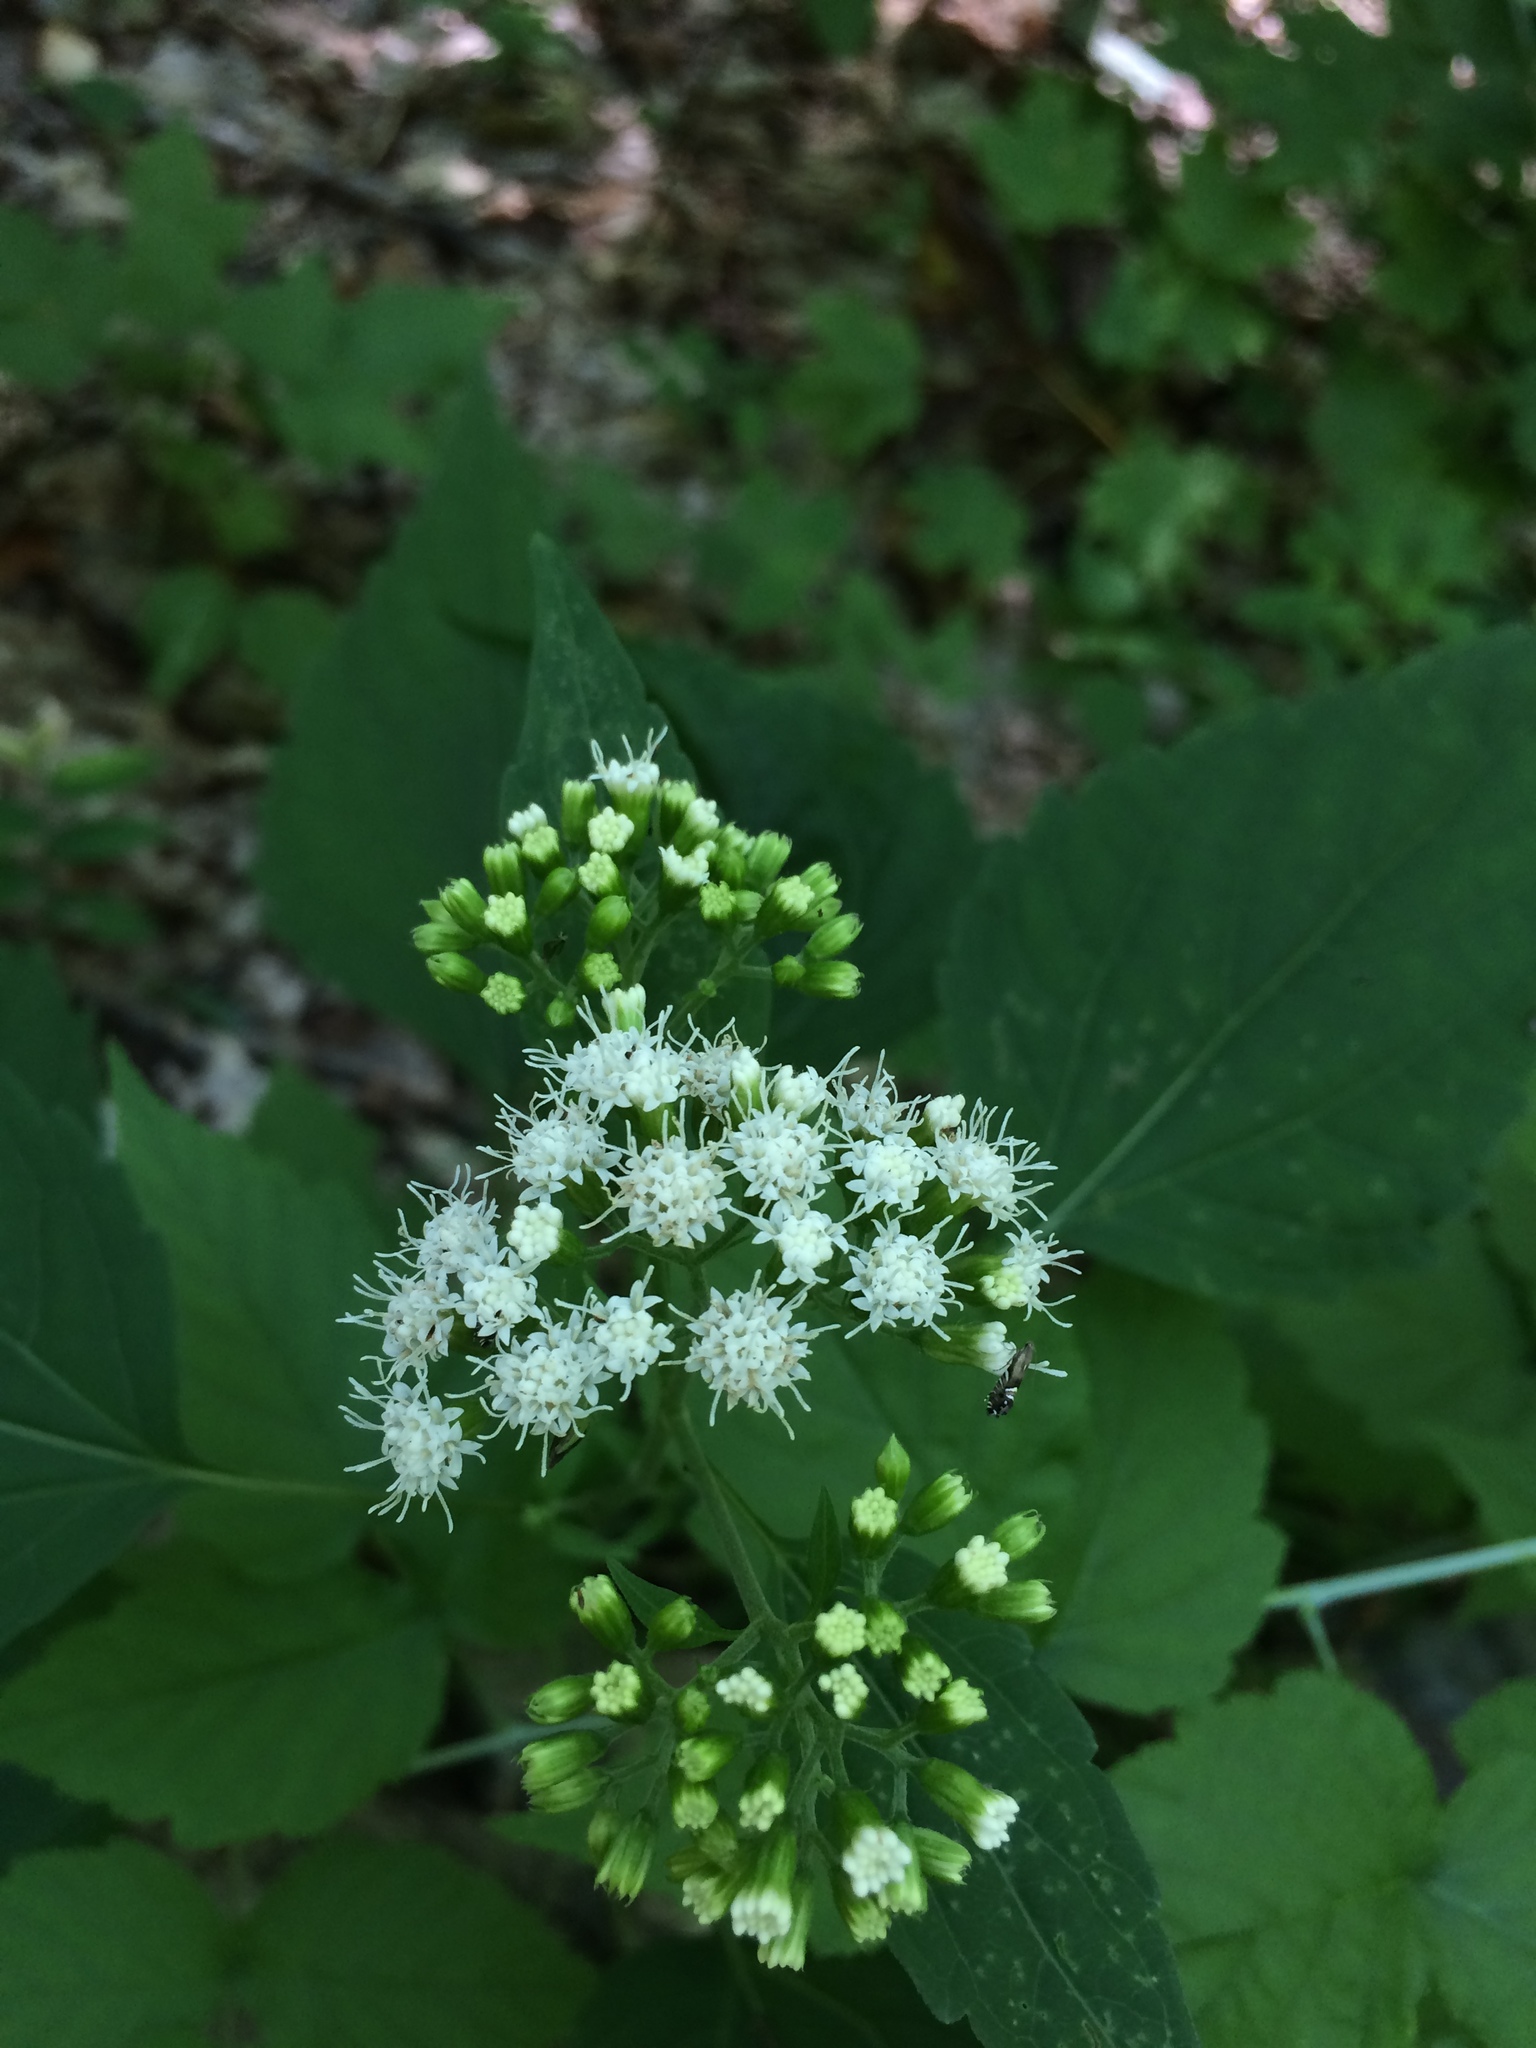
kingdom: Plantae
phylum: Tracheophyta
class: Magnoliopsida
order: Asterales
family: Asteraceae
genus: Ageratina
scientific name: Ageratina altissima
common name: White snakeroot
